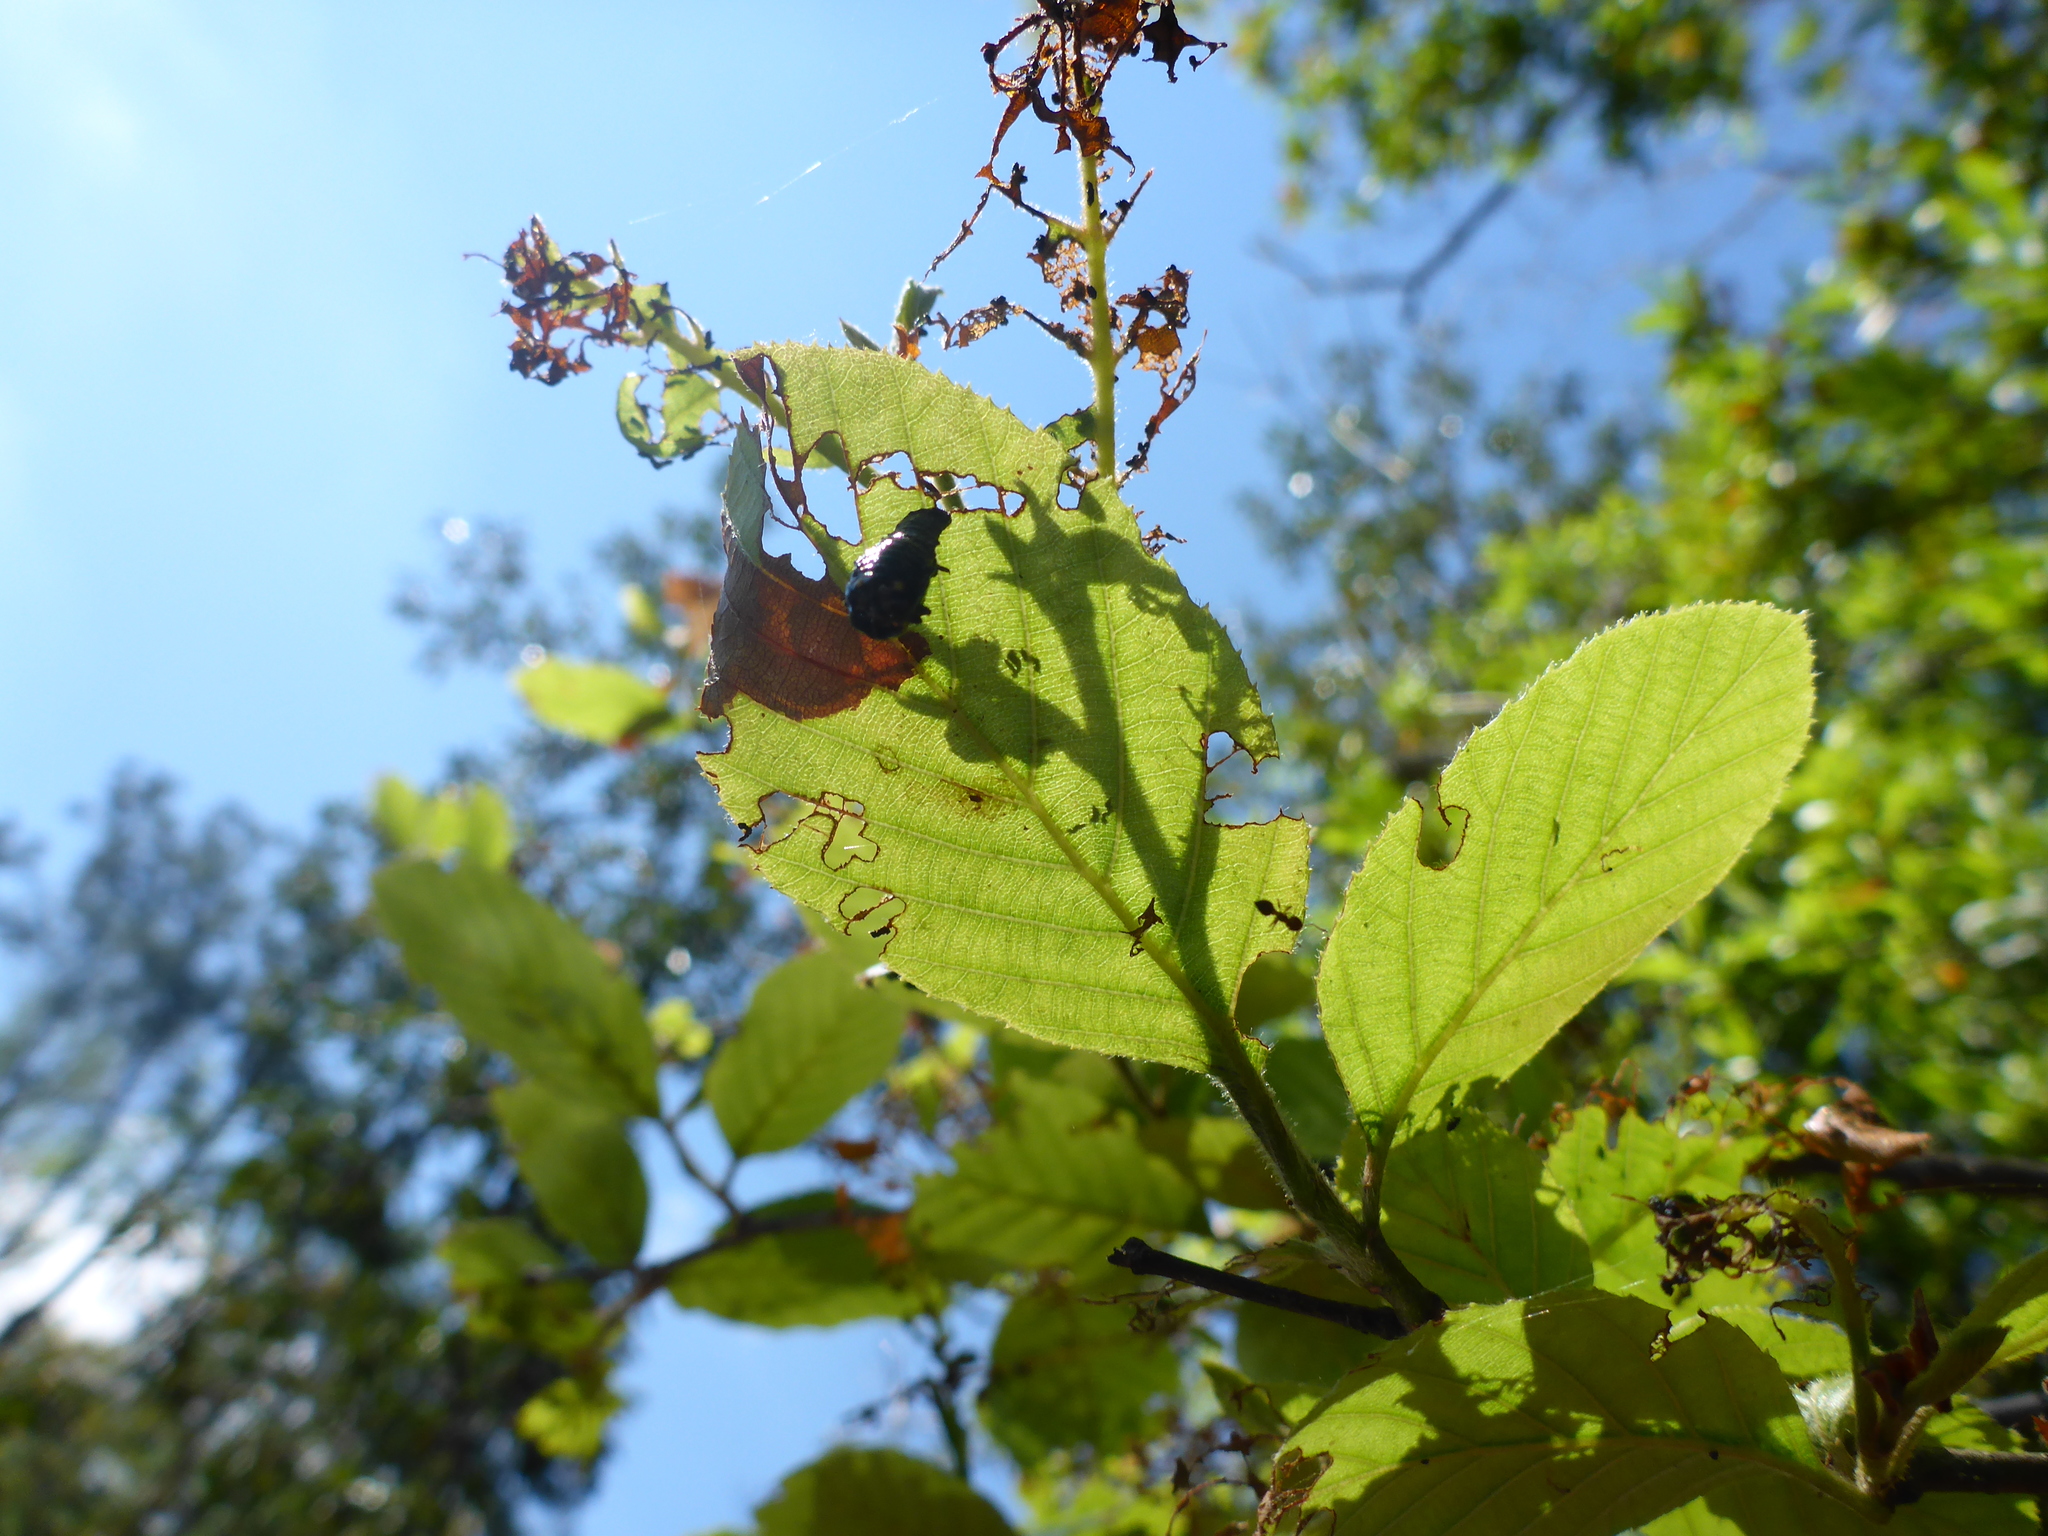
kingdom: Animalia
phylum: Arthropoda
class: Insecta
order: Coleoptera
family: Chrysomelidae
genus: Chrysomela
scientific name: Chrysomela interrupta
